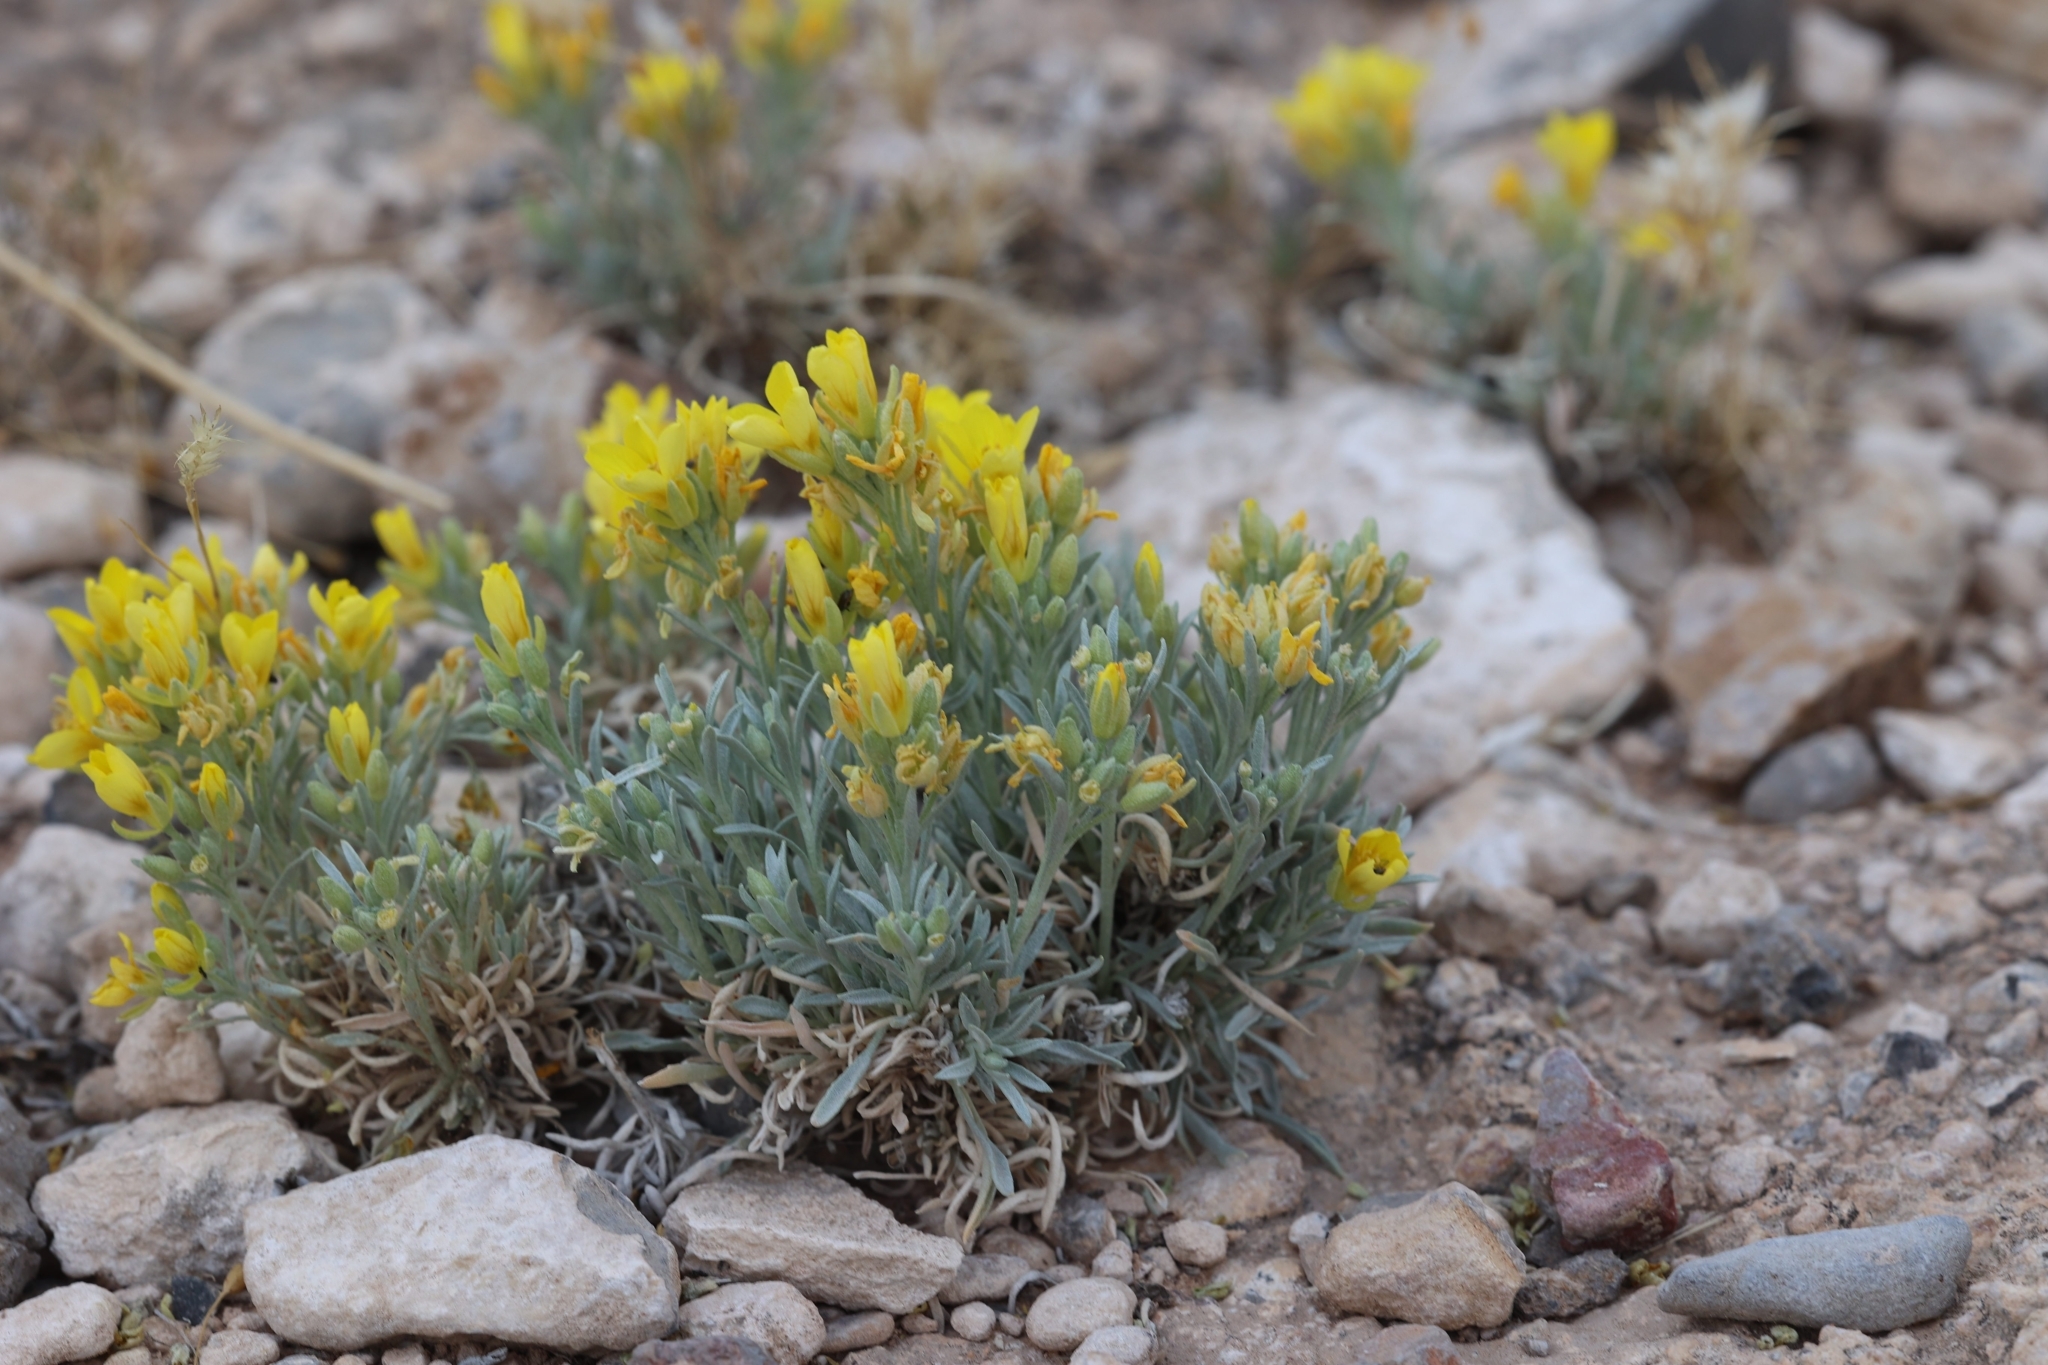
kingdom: Plantae
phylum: Tracheophyta
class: Magnoliopsida
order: Brassicales
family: Brassicaceae
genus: Physaria
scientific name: Physaria fendleri
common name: Fendler's bladderpod
